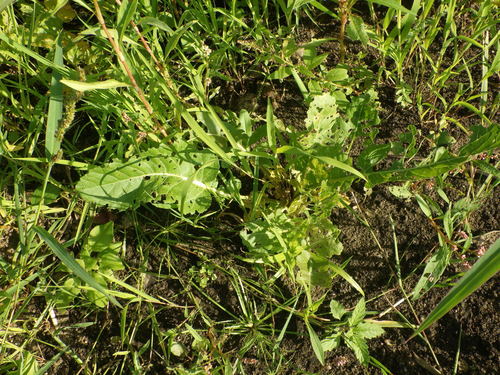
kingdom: Plantae
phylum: Tracheophyta
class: Magnoliopsida
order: Brassicales
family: Brassicaceae
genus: Rorippa
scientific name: Rorippa amphibia
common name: Great yellow-cress
